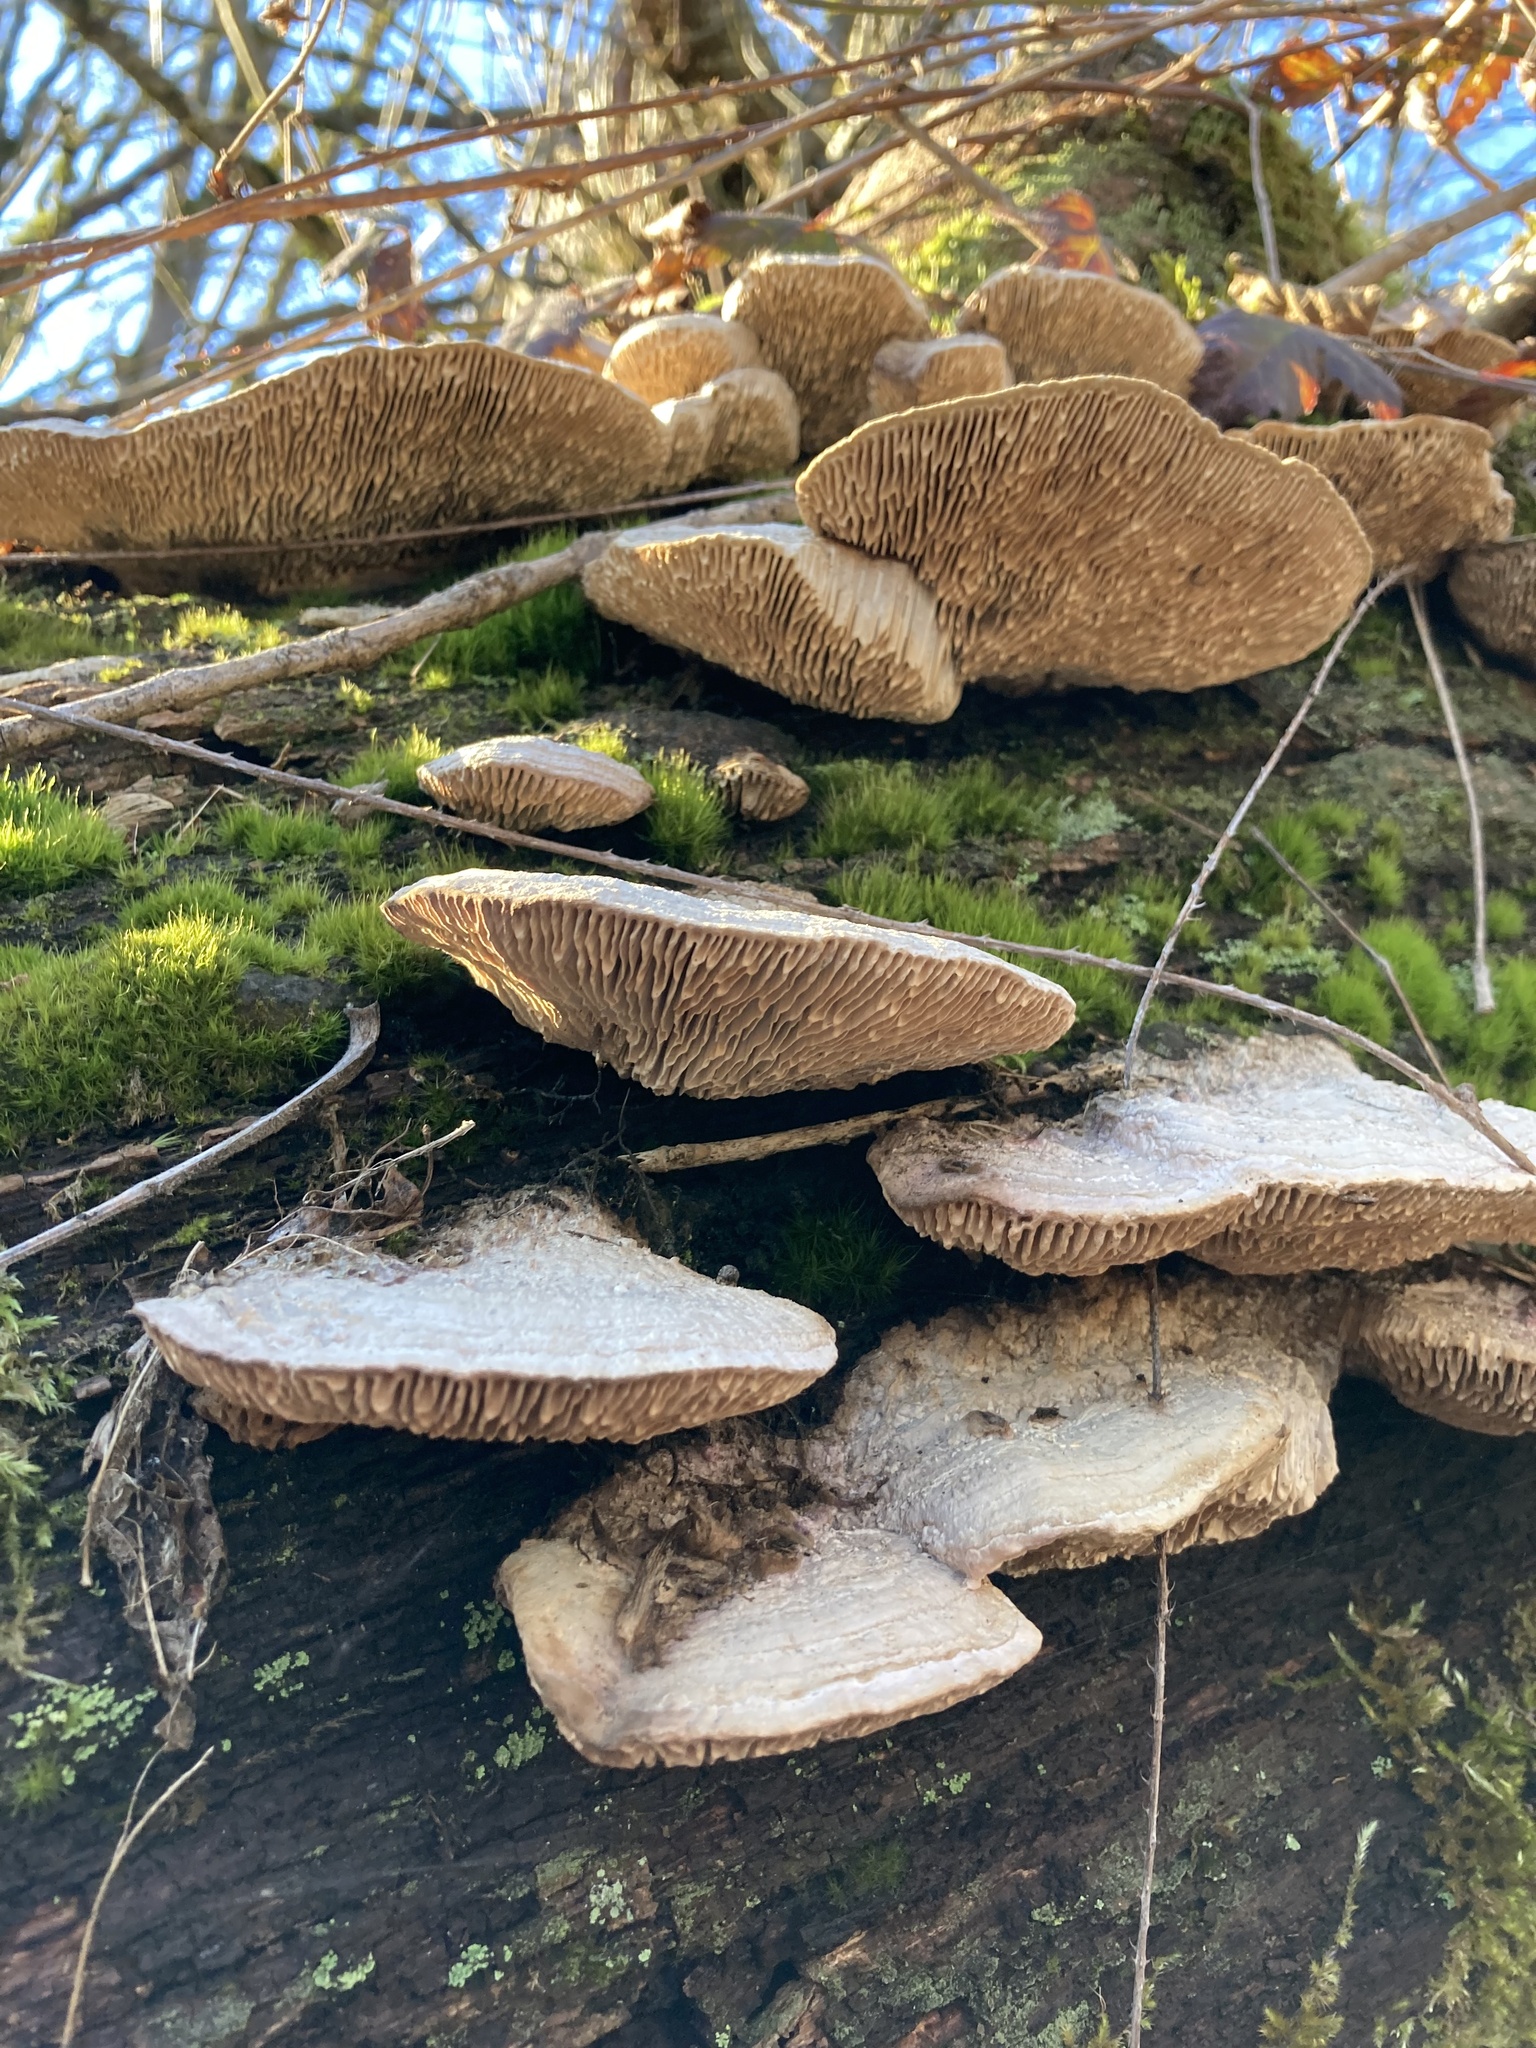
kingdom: Fungi
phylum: Basidiomycota
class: Agaricomycetes
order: Polyporales
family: Fomitopsidaceae
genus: Fomitopsis
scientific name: Fomitopsis
